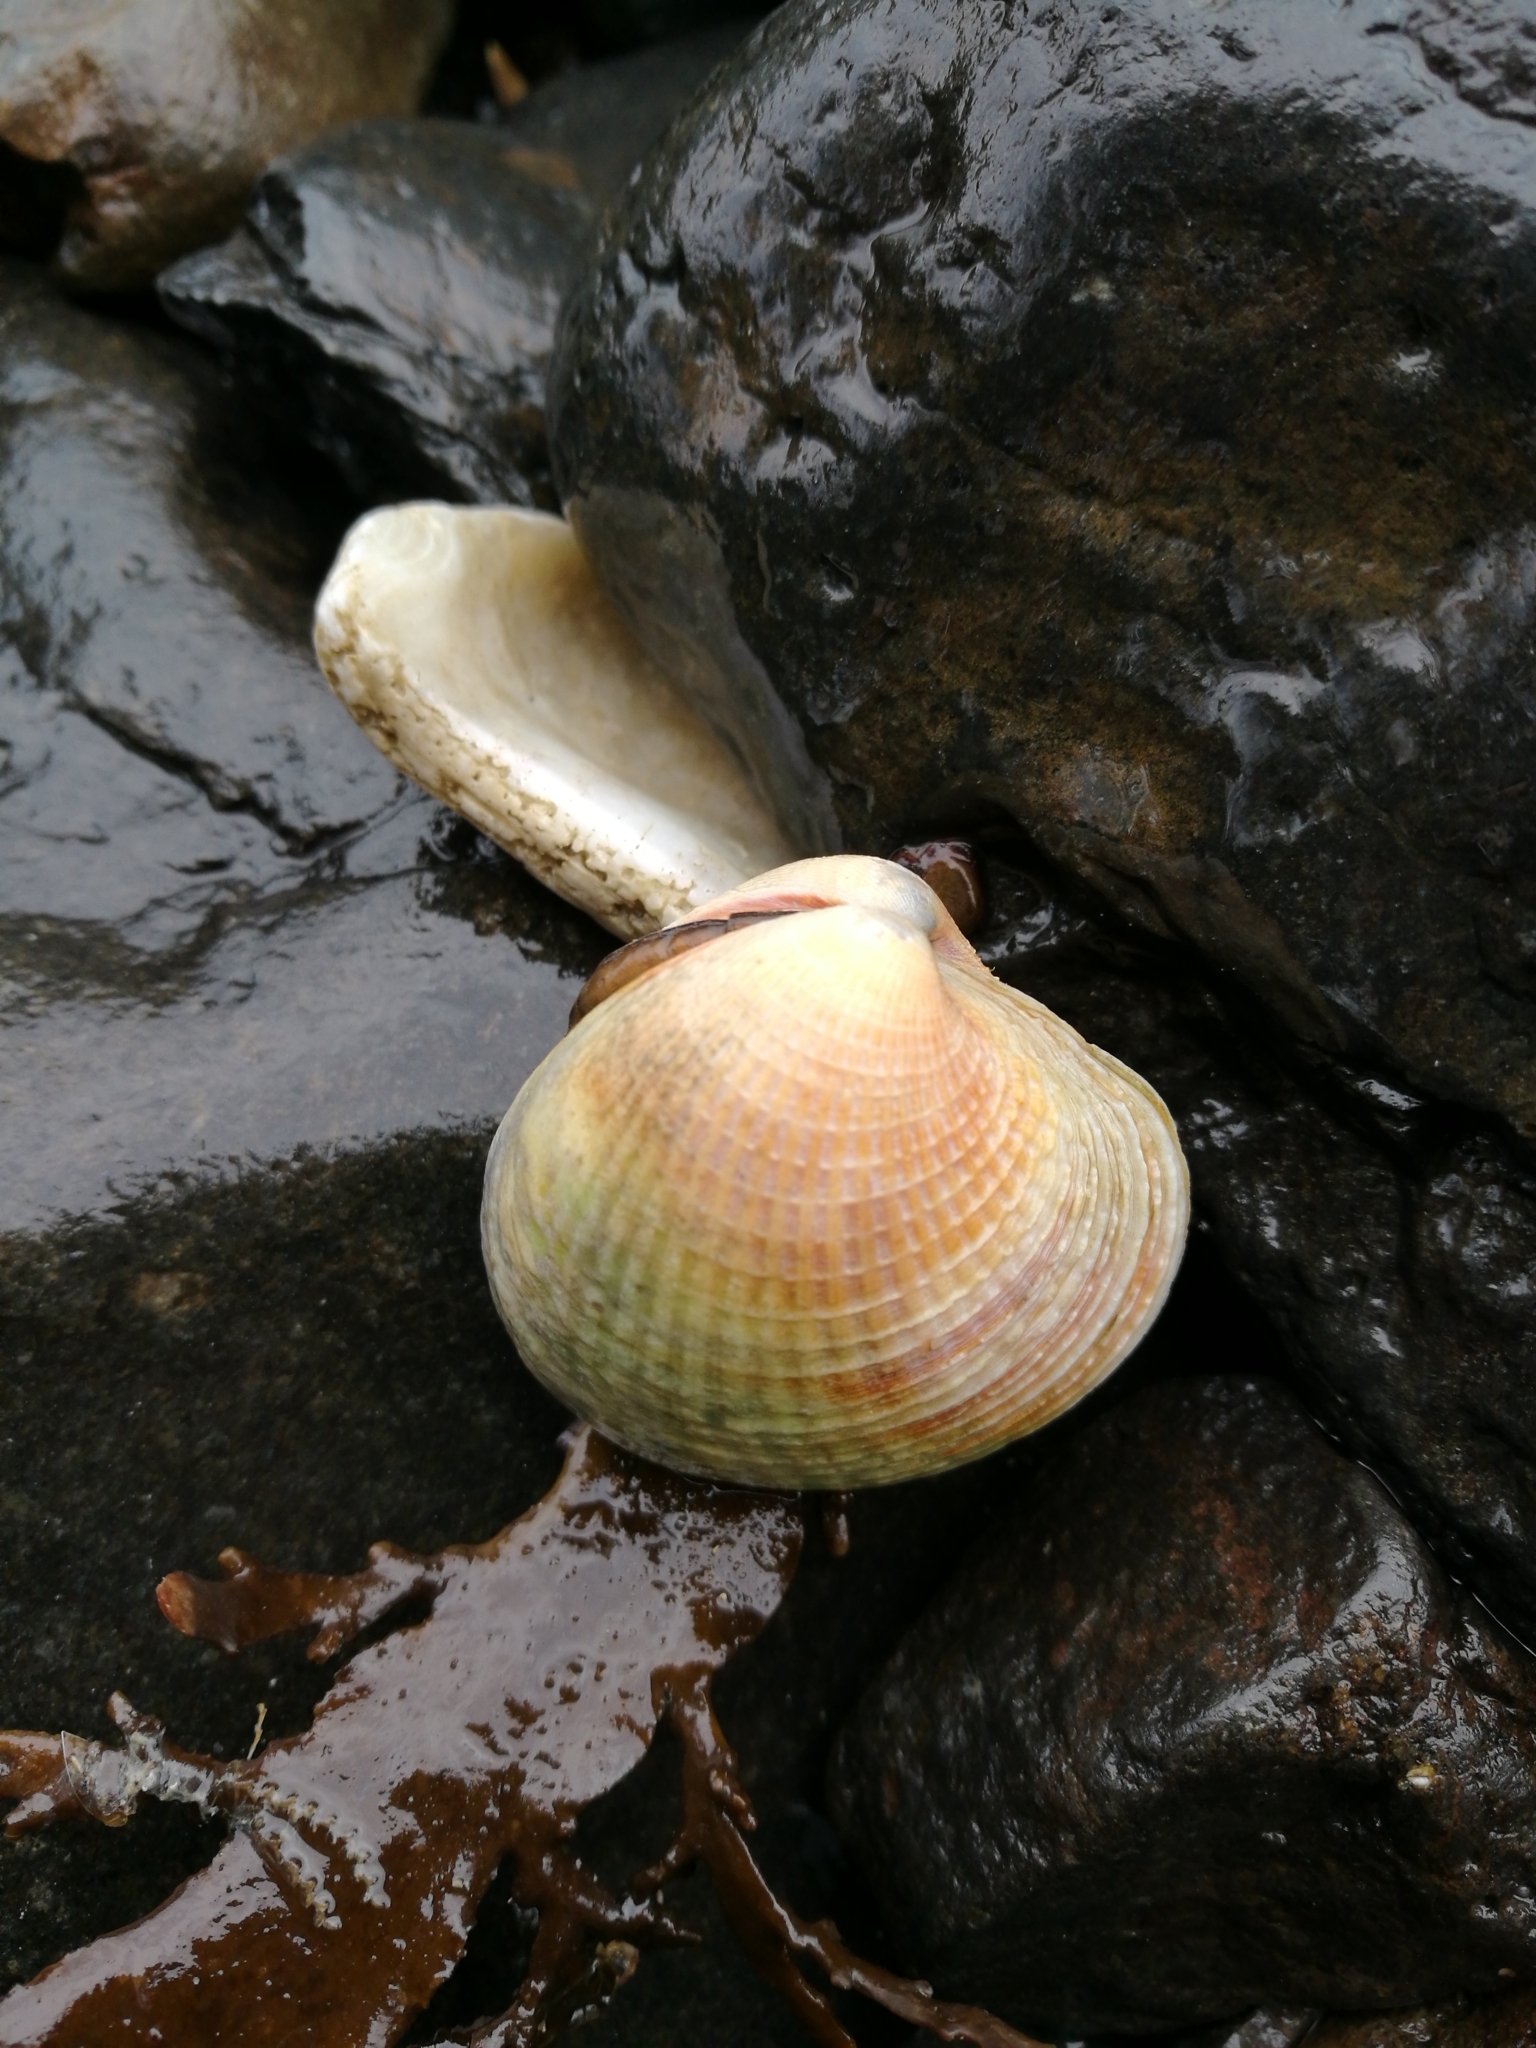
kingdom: Animalia
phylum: Mollusca
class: Bivalvia
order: Venerida
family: Veneridae
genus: Austrovenus
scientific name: Austrovenus stutchburyi
